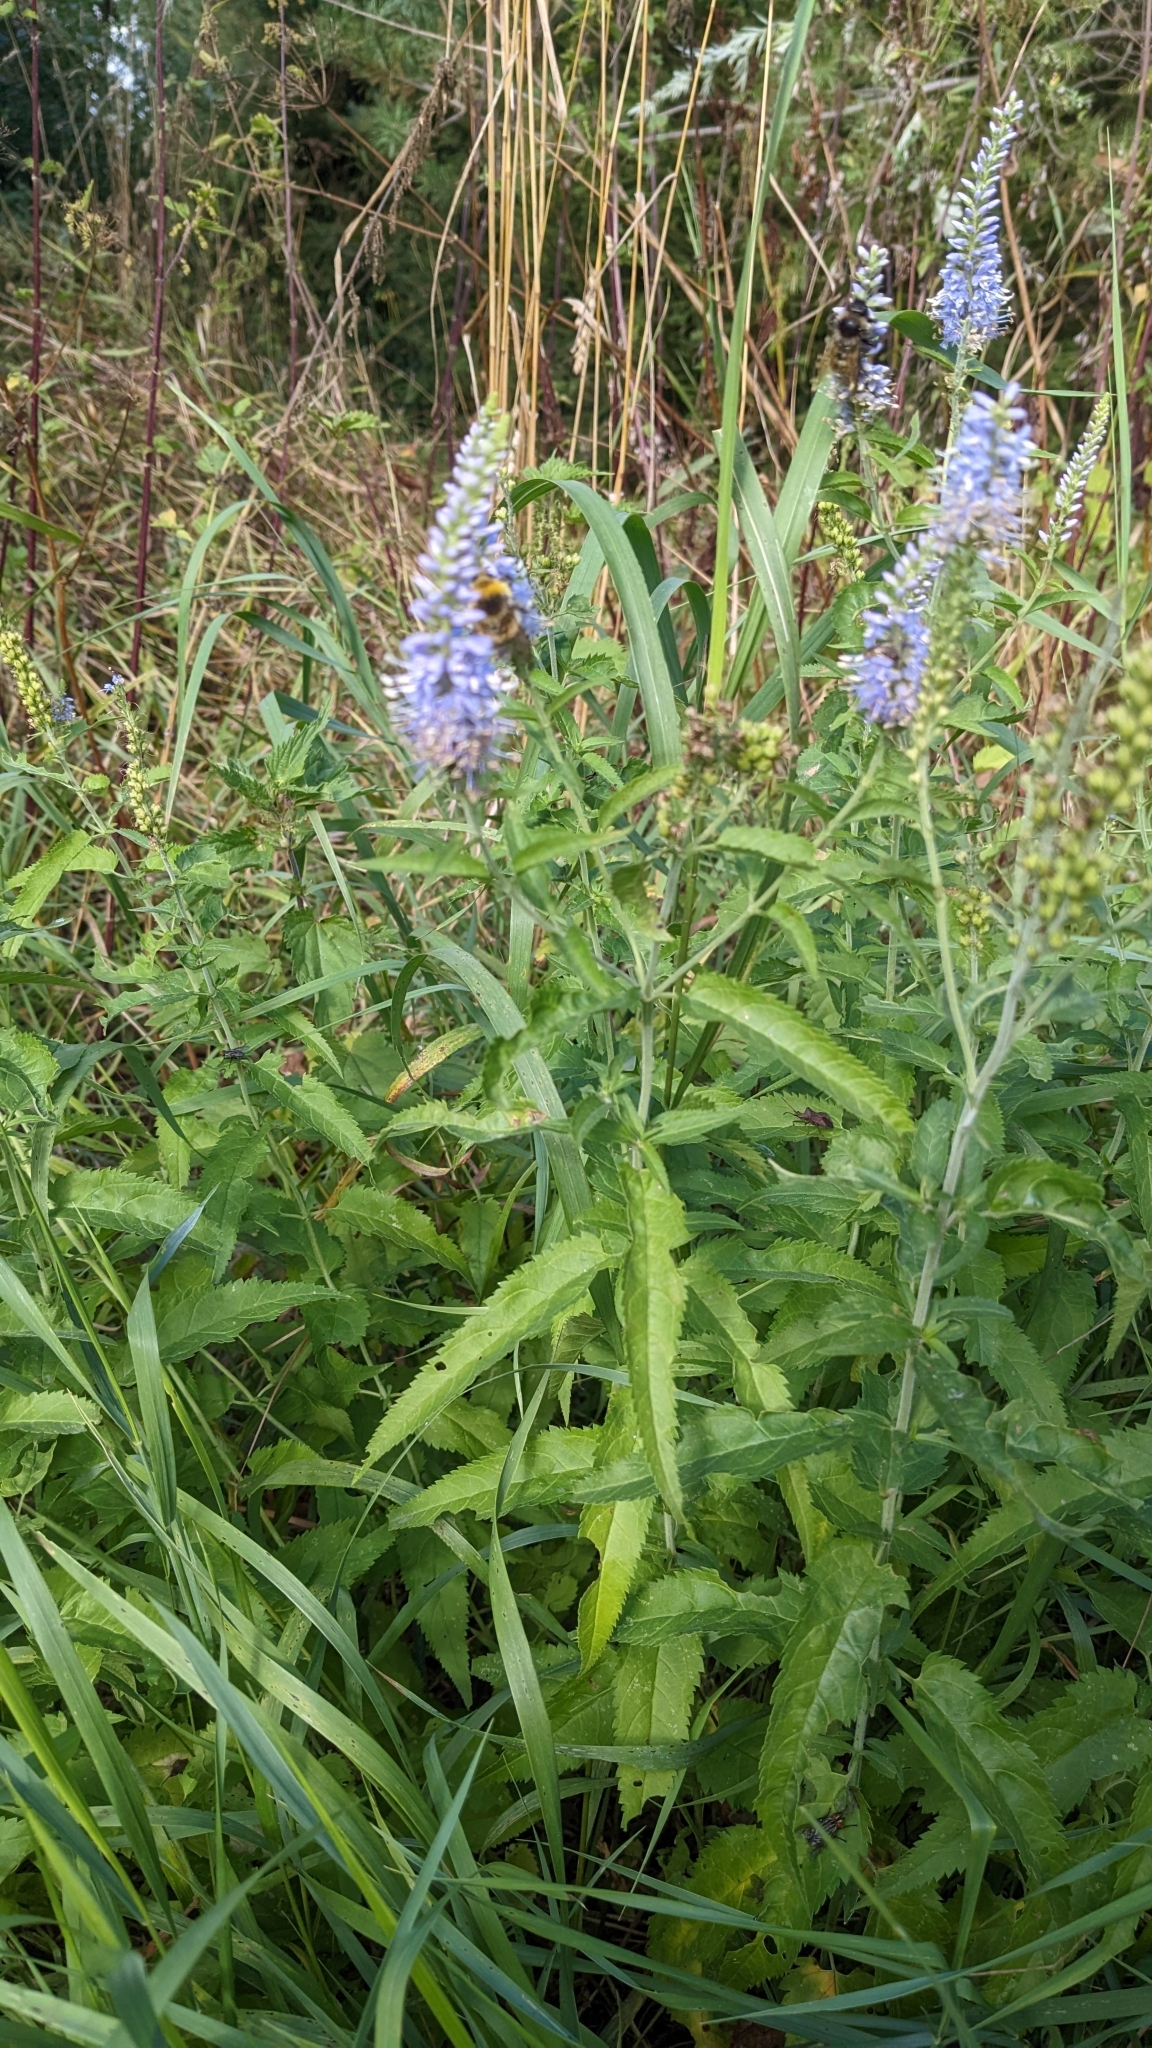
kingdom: Plantae
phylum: Tracheophyta
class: Magnoliopsida
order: Lamiales
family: Plantaginaceae
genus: Veronica
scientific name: Veronica longifolia
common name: Garden speedwell
